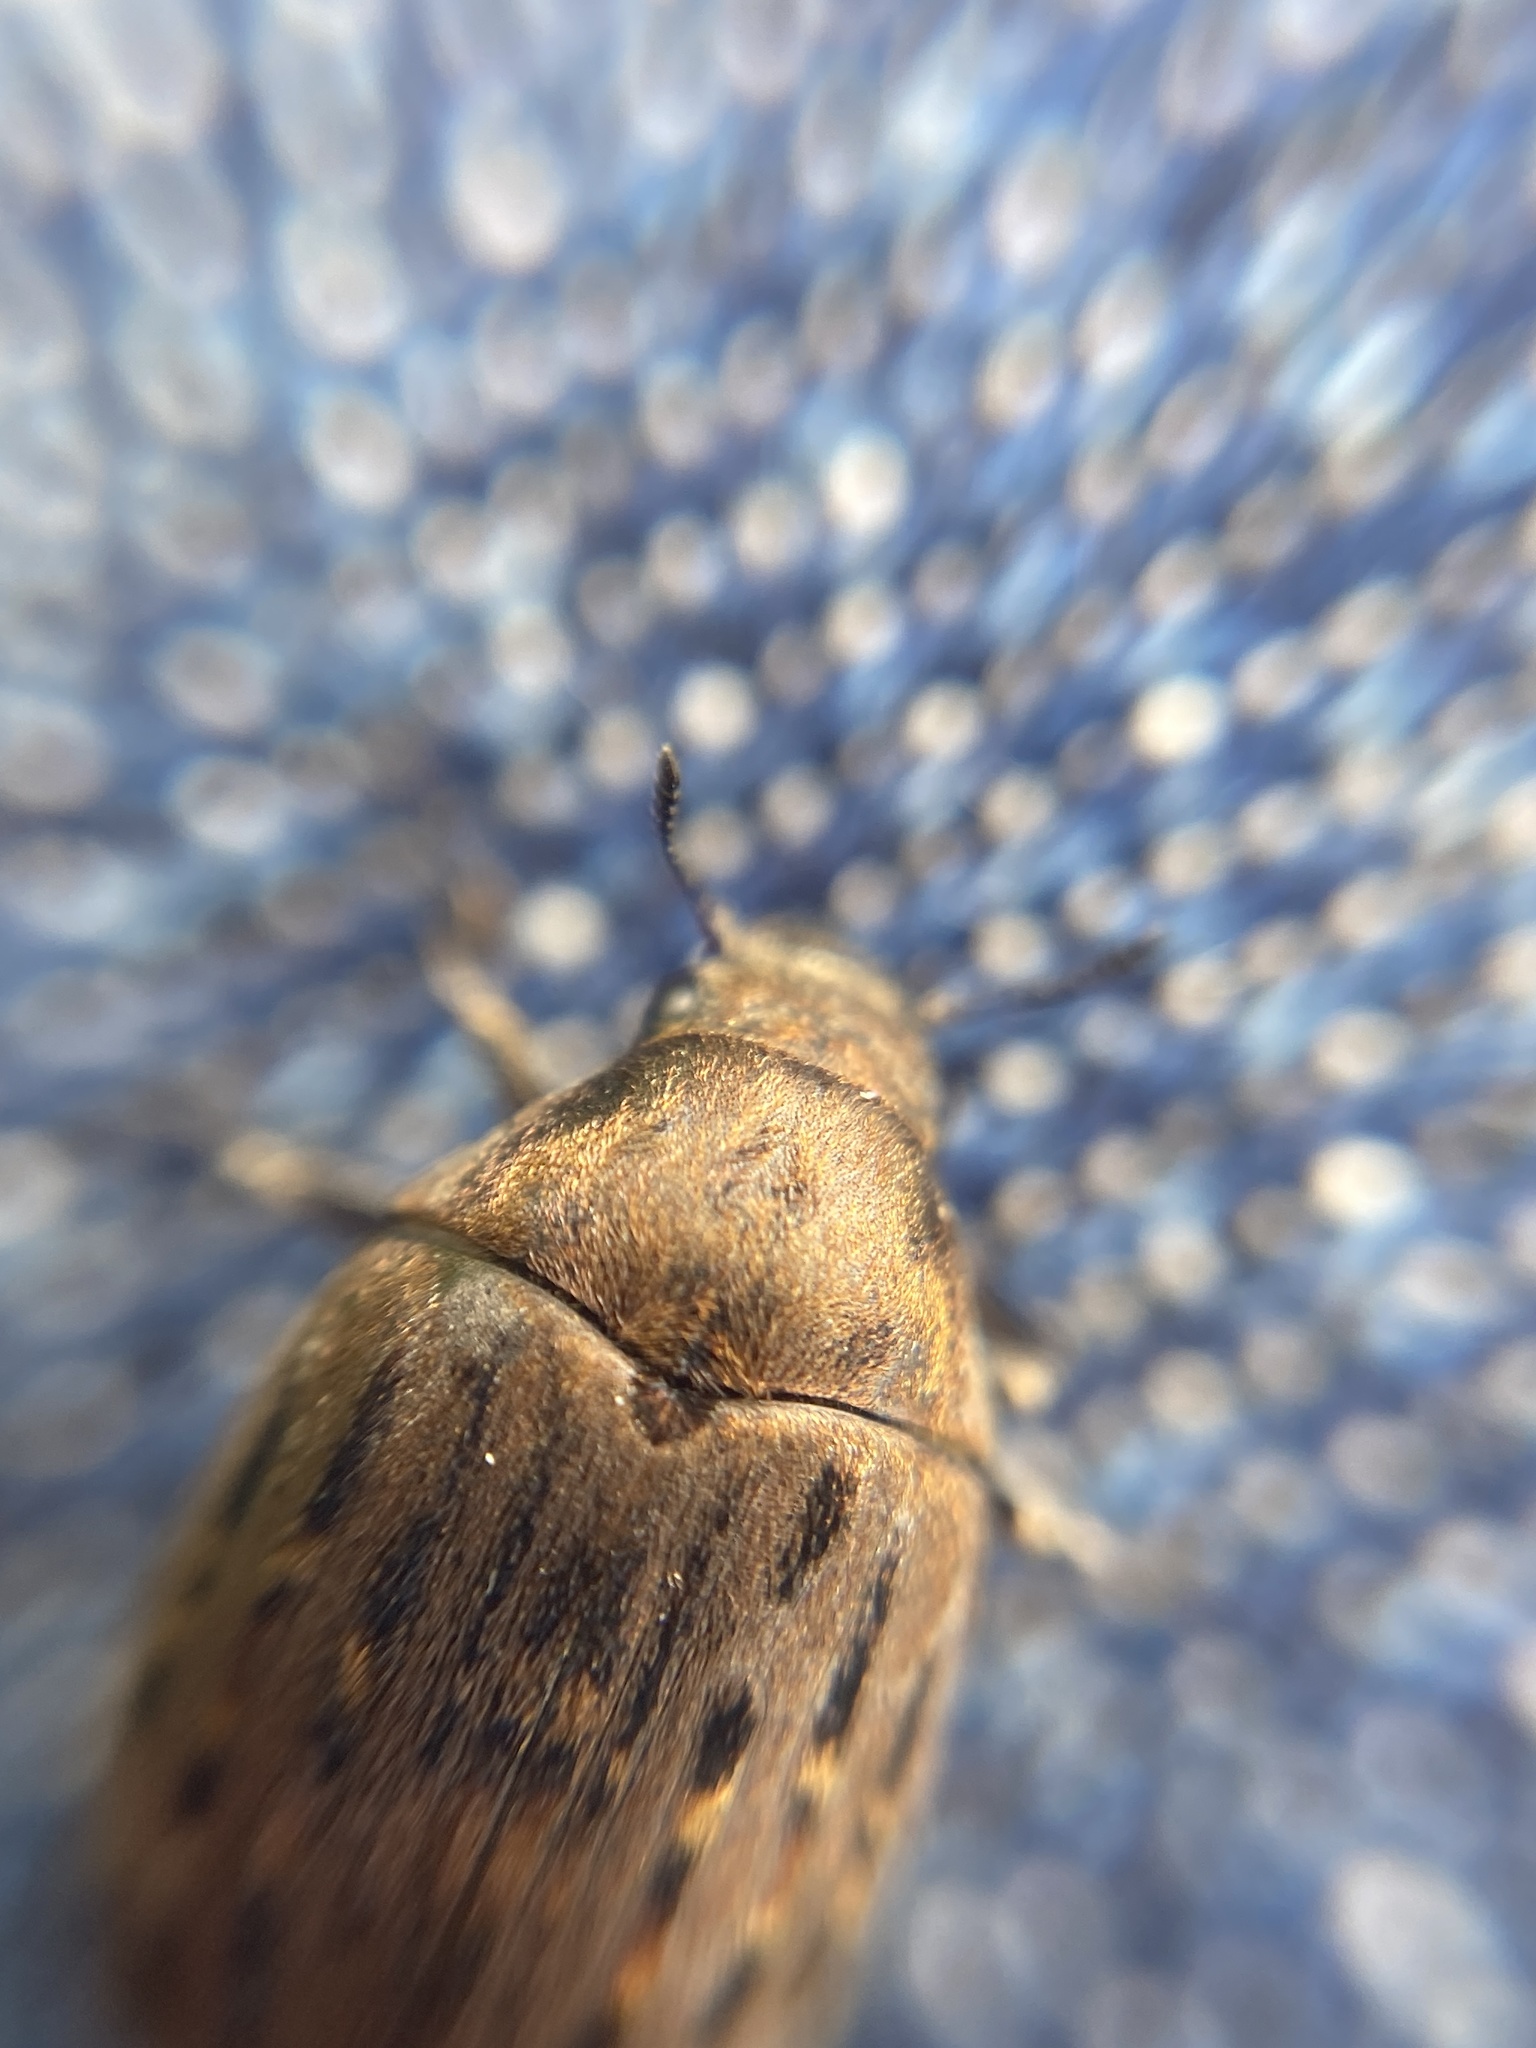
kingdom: Animalia
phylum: Arthropoda
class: Insecta
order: Coleoptera
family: Byrrhidae
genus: Byrrhus
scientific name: Byrrhus pilula
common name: Pill beetle
